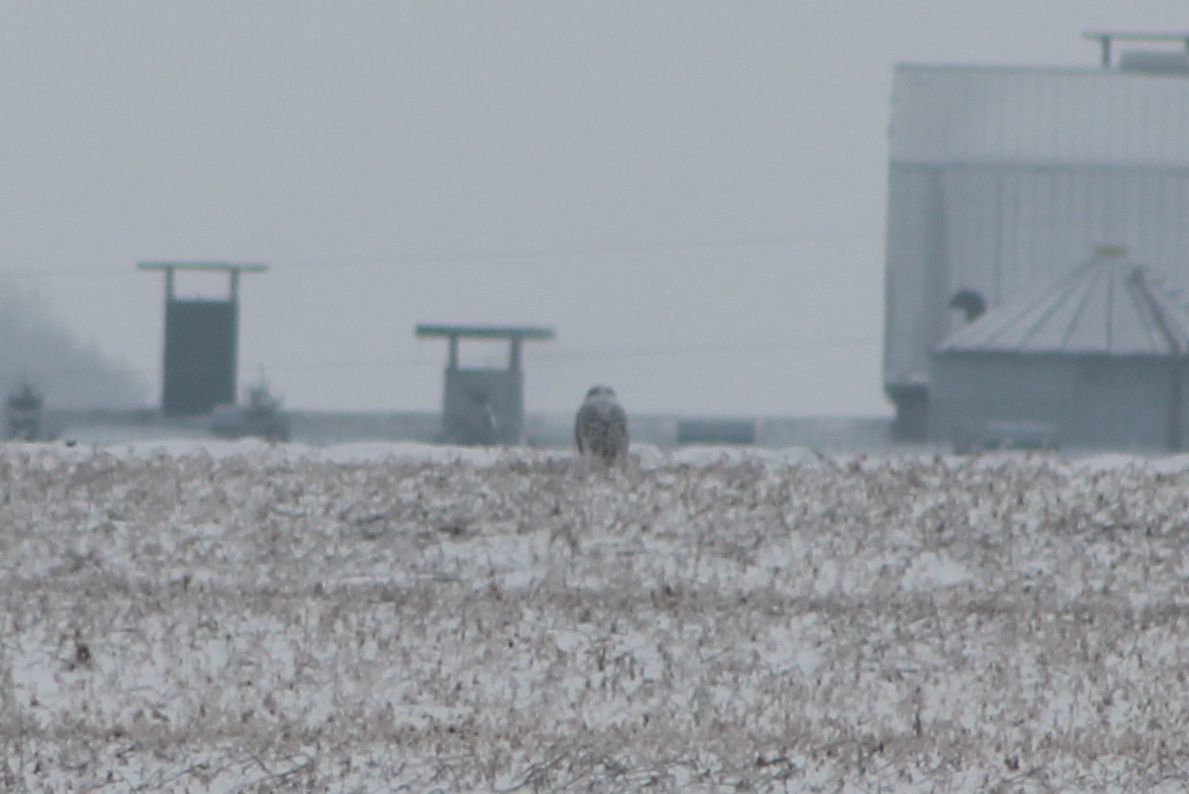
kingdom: Animalia
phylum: Chordata
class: Aves
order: Strigiformes
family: Strigidae
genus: Bubo
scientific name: Bubo scandiacus
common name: Snowy owl
